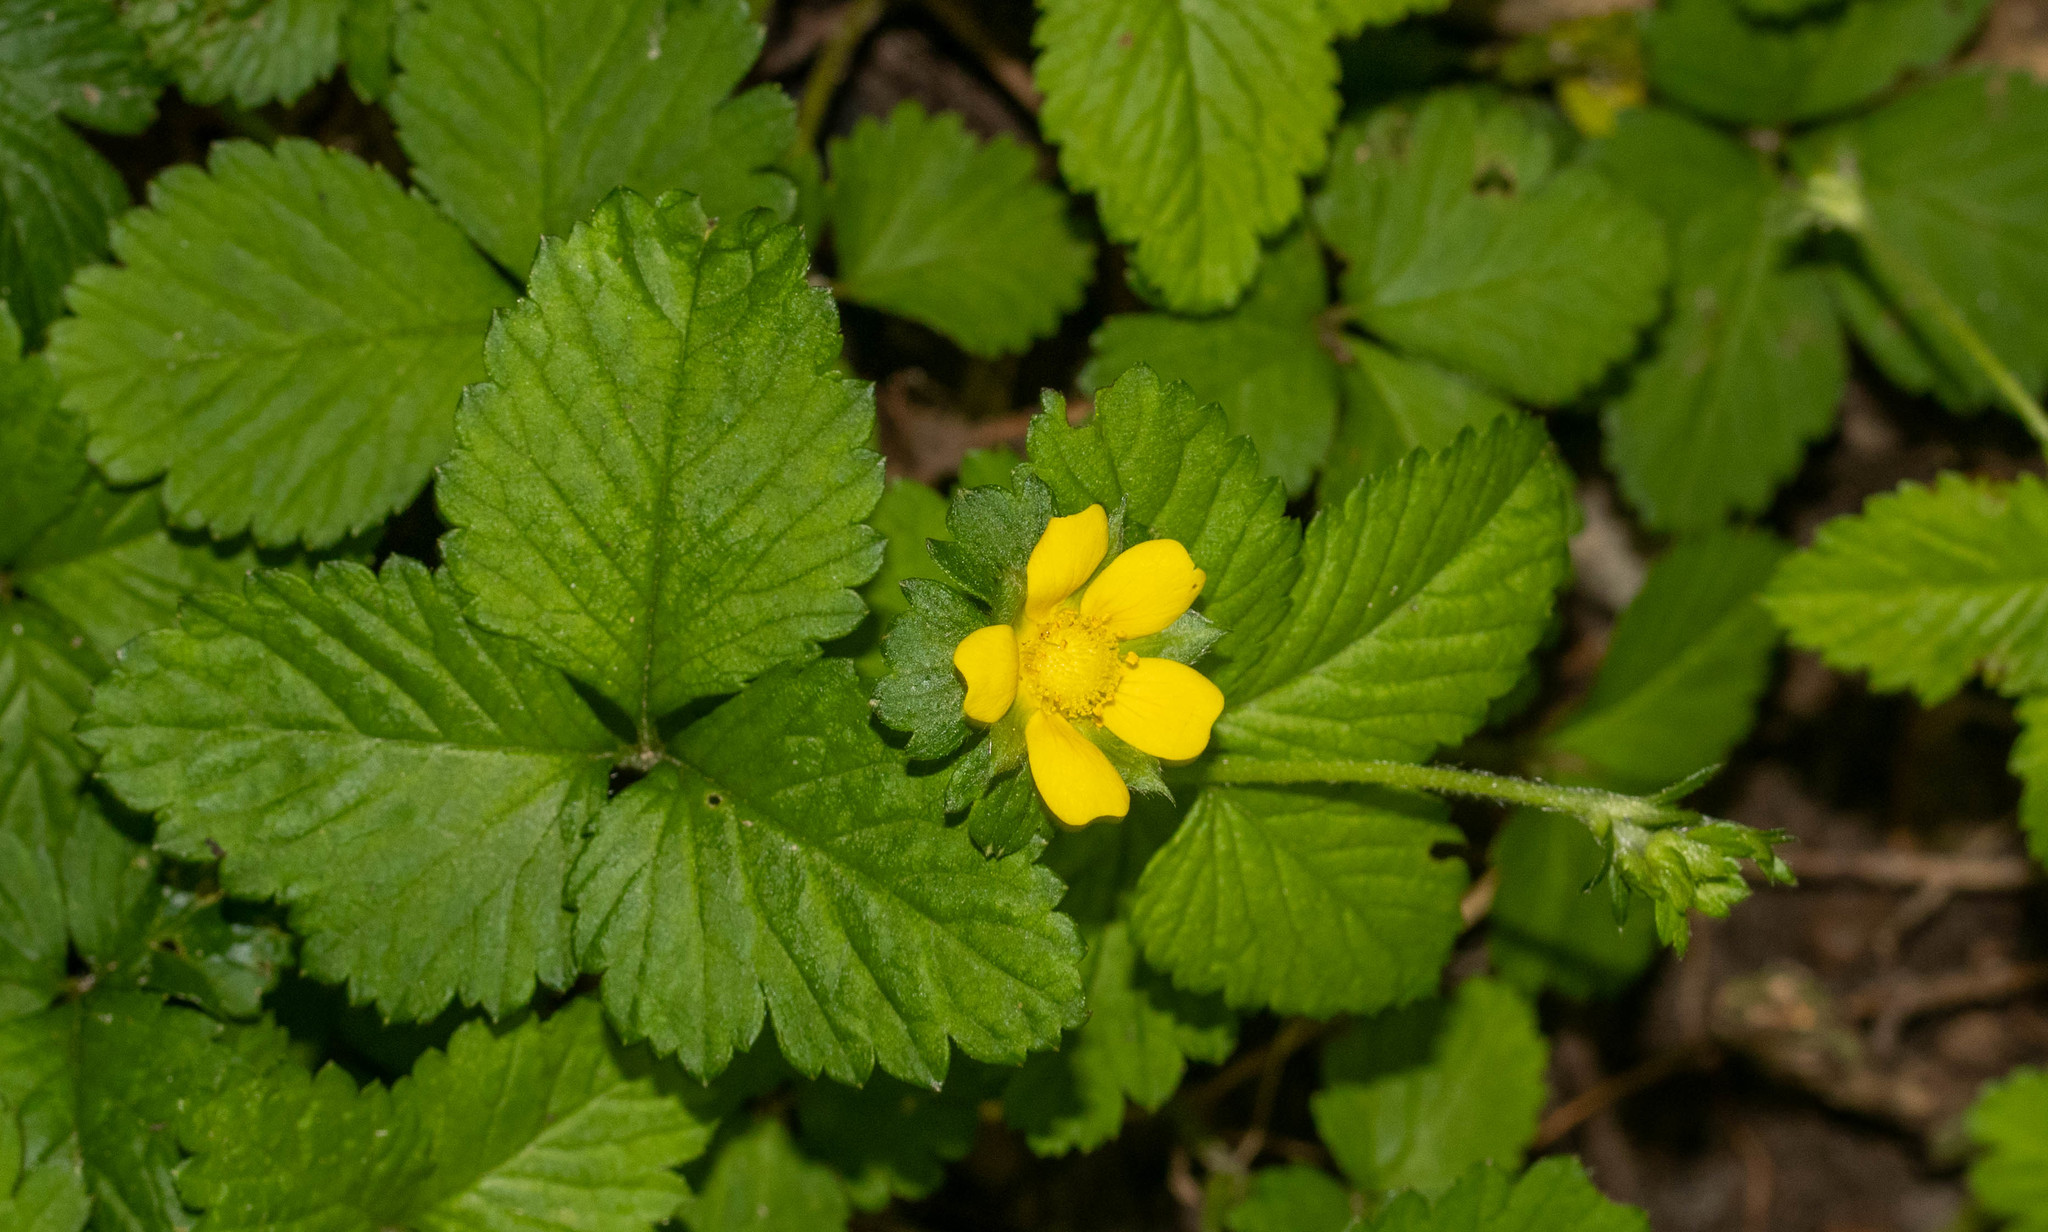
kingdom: Plantae
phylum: Tracheophyta
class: Magnoliopsida
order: Rosales
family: Rosaceae
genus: Potentilla
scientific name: Potentilla indica
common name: Yellow-flowered strawberry
